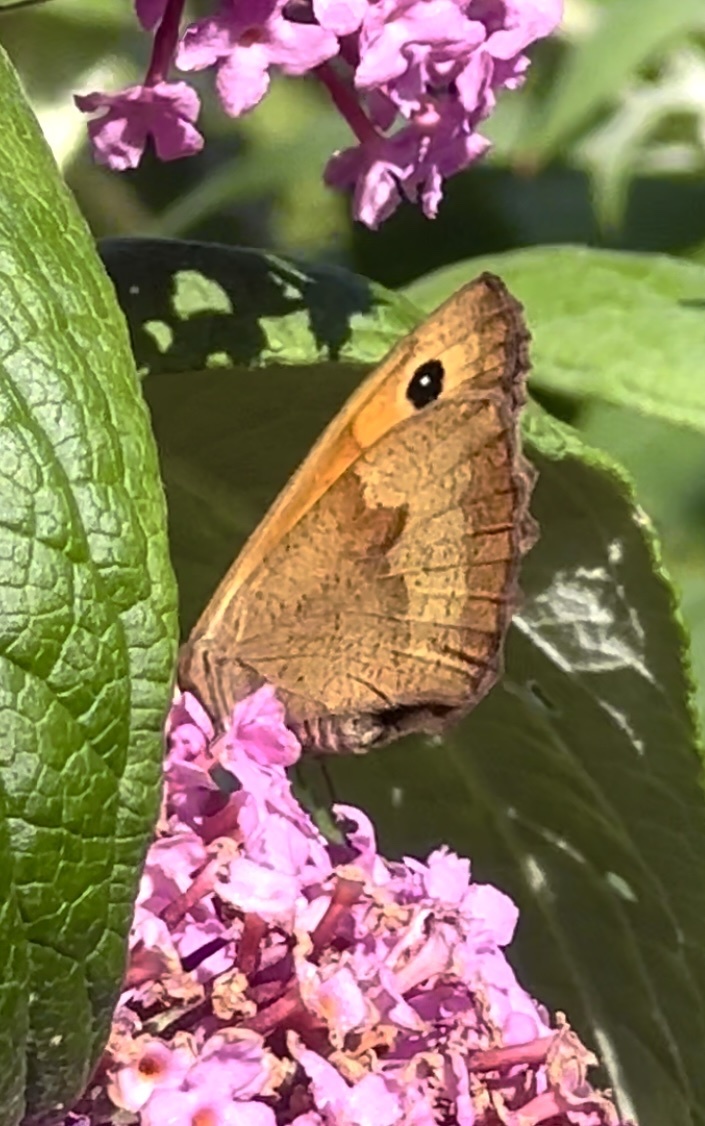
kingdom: Animalia
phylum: Arthropoda
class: Insecta
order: Lepidoptera
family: Nymphalidae
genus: Maniola
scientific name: Maniola jurtina
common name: Meadow brown
